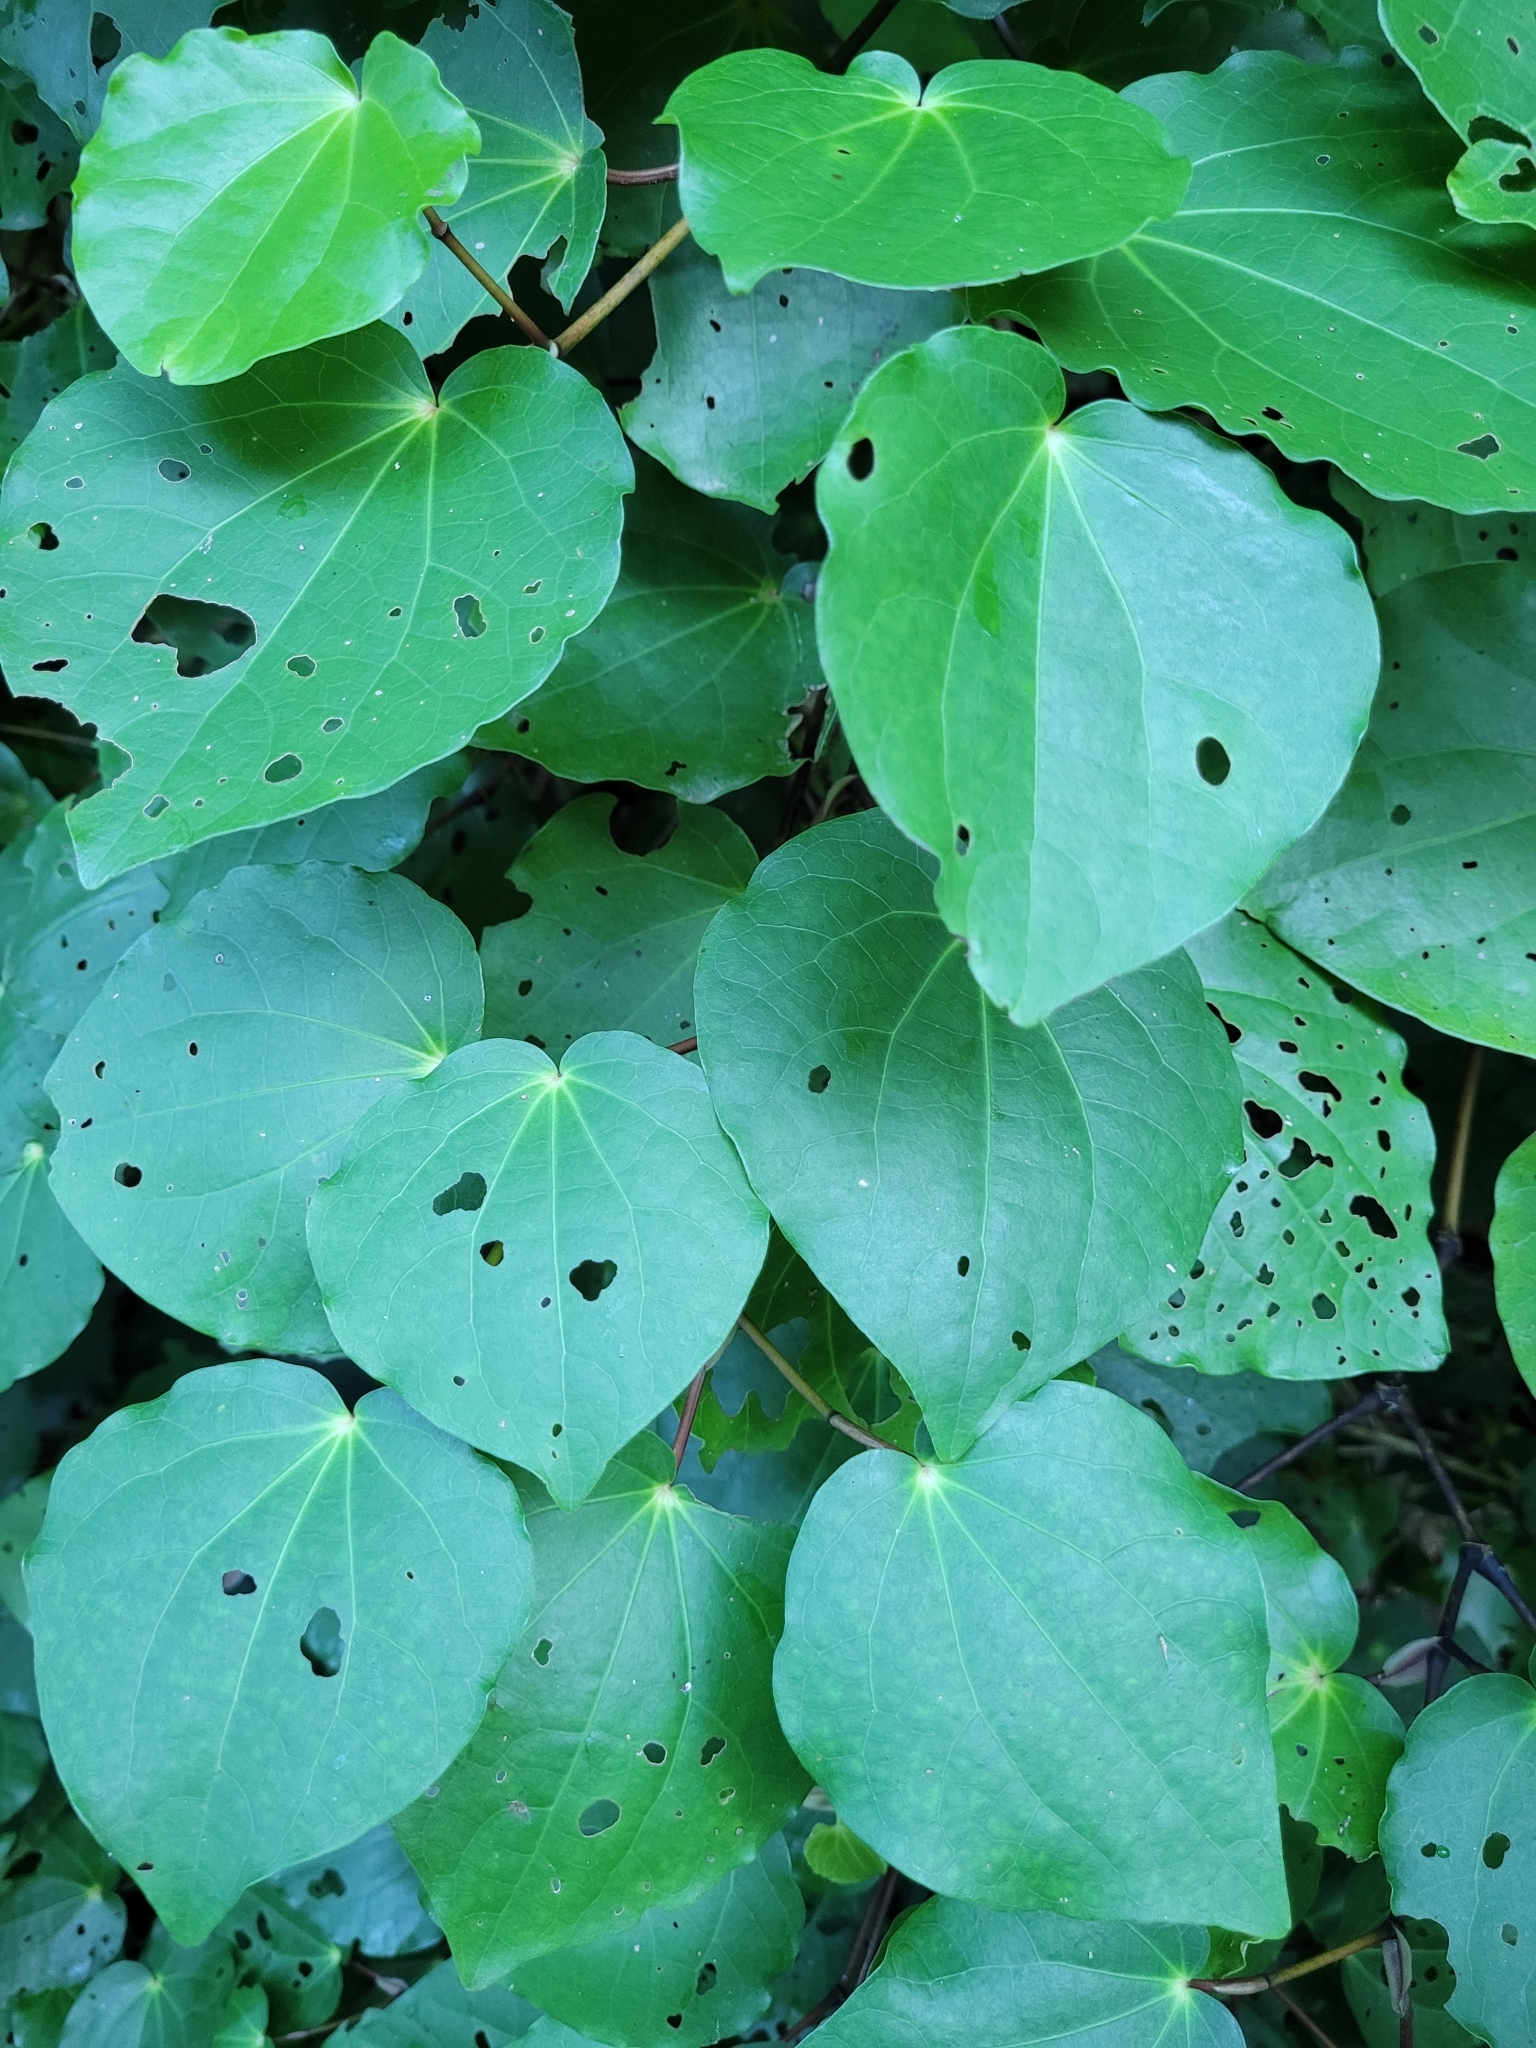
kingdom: Plantae
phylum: Tracheophyta
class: Magnoliopsida
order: Piperales
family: Piperaceae
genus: Macropiper
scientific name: Macropiper excelsum
